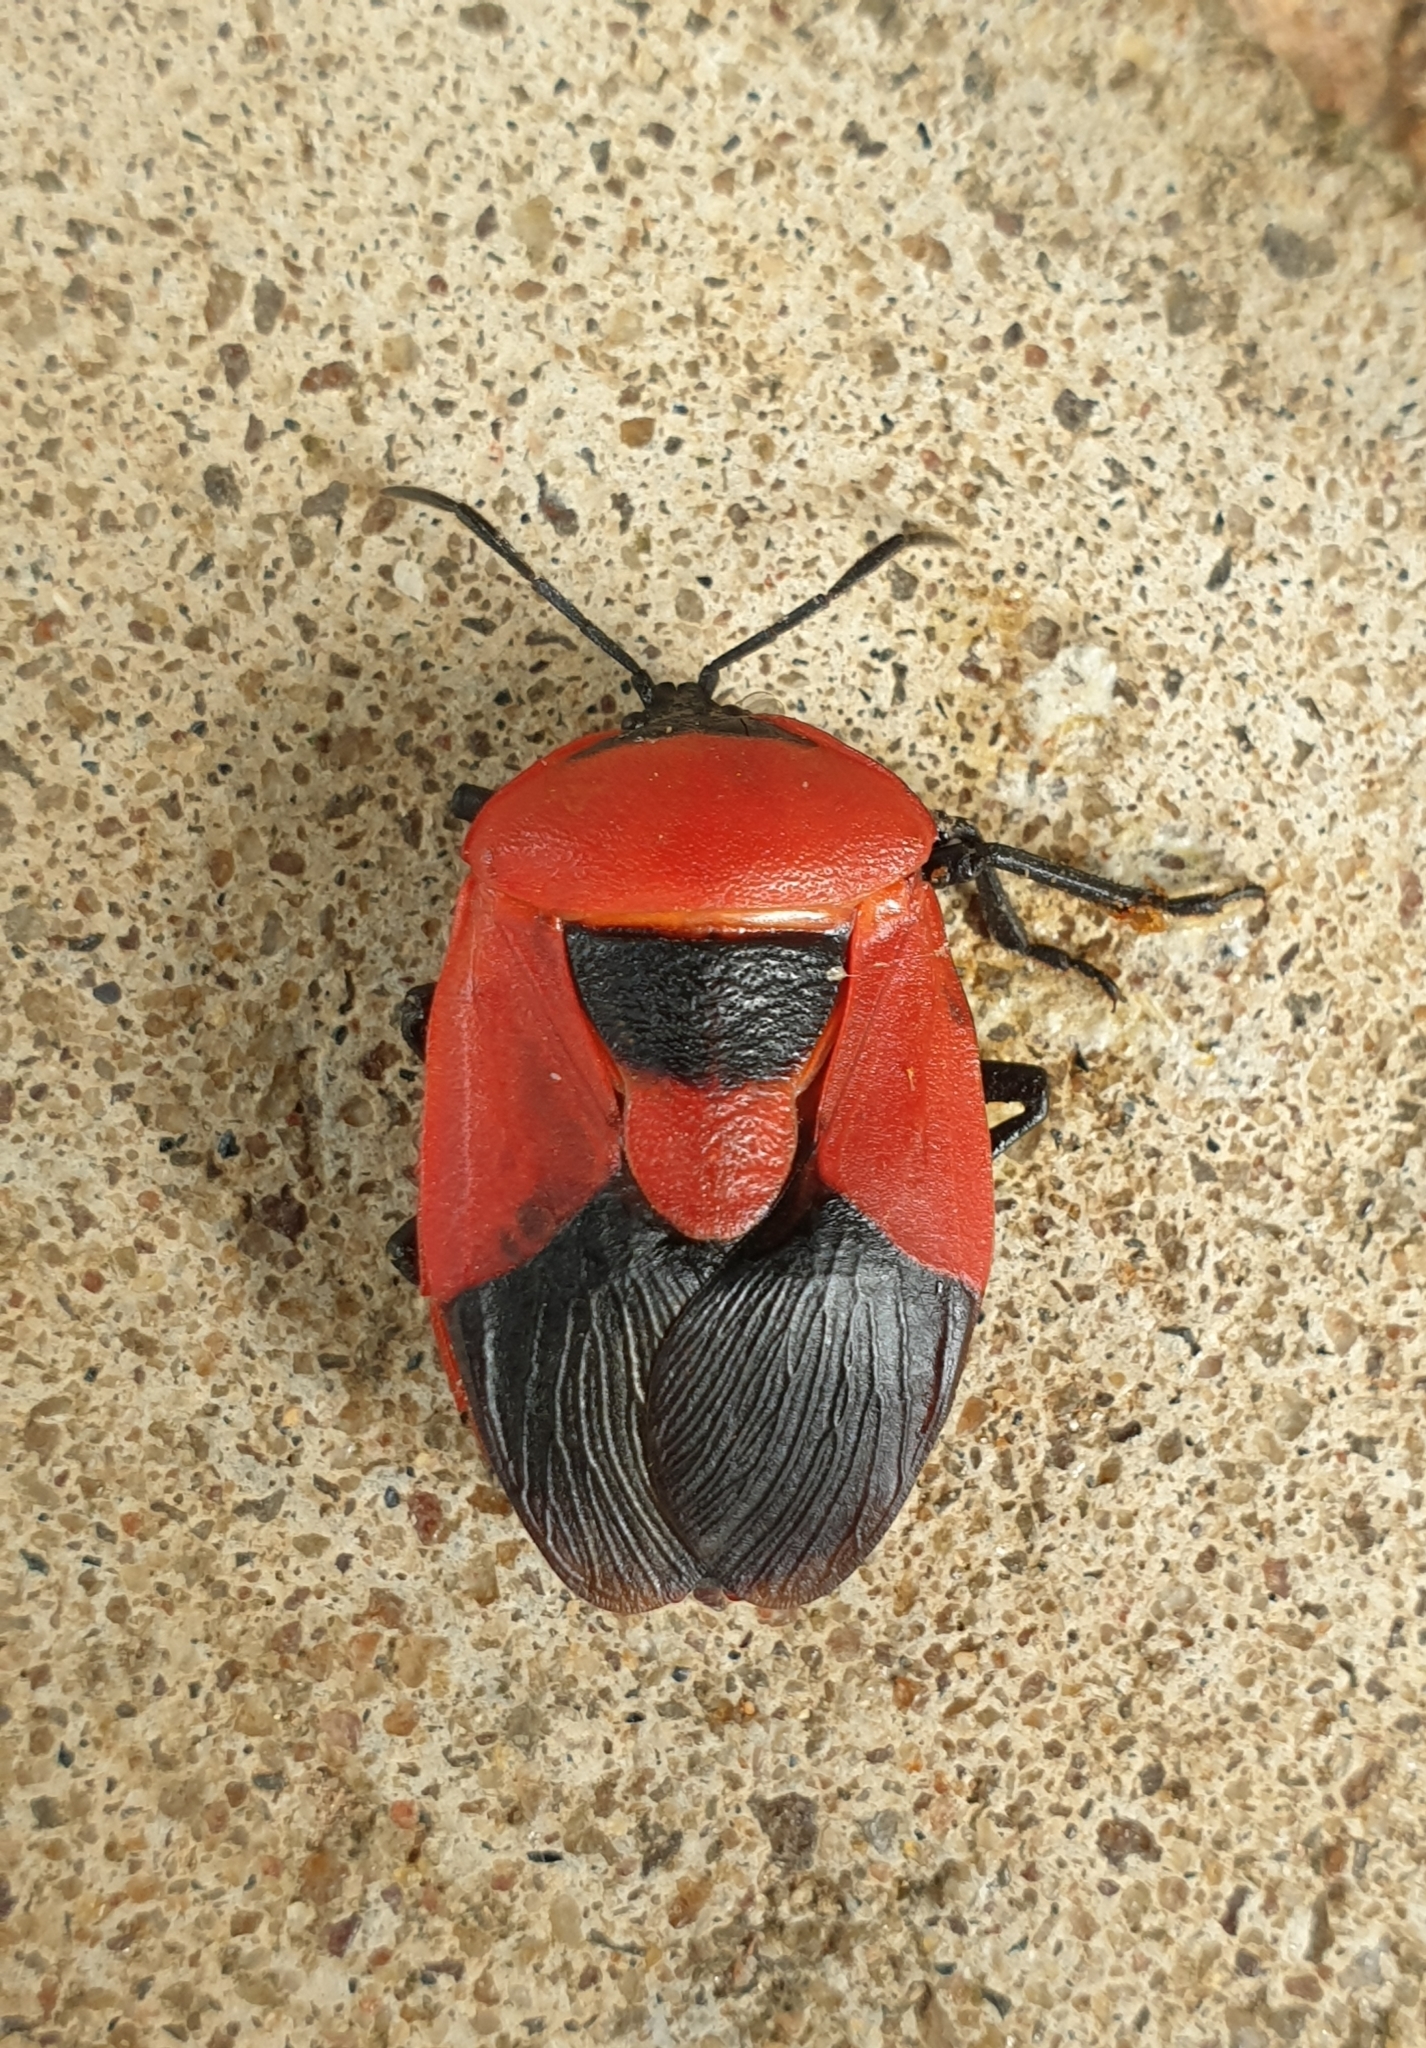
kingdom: Animalia
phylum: Arthropoda
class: Insecta
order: Hemiptera
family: Dinidoridae
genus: Coridius
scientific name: Coridius ianus
